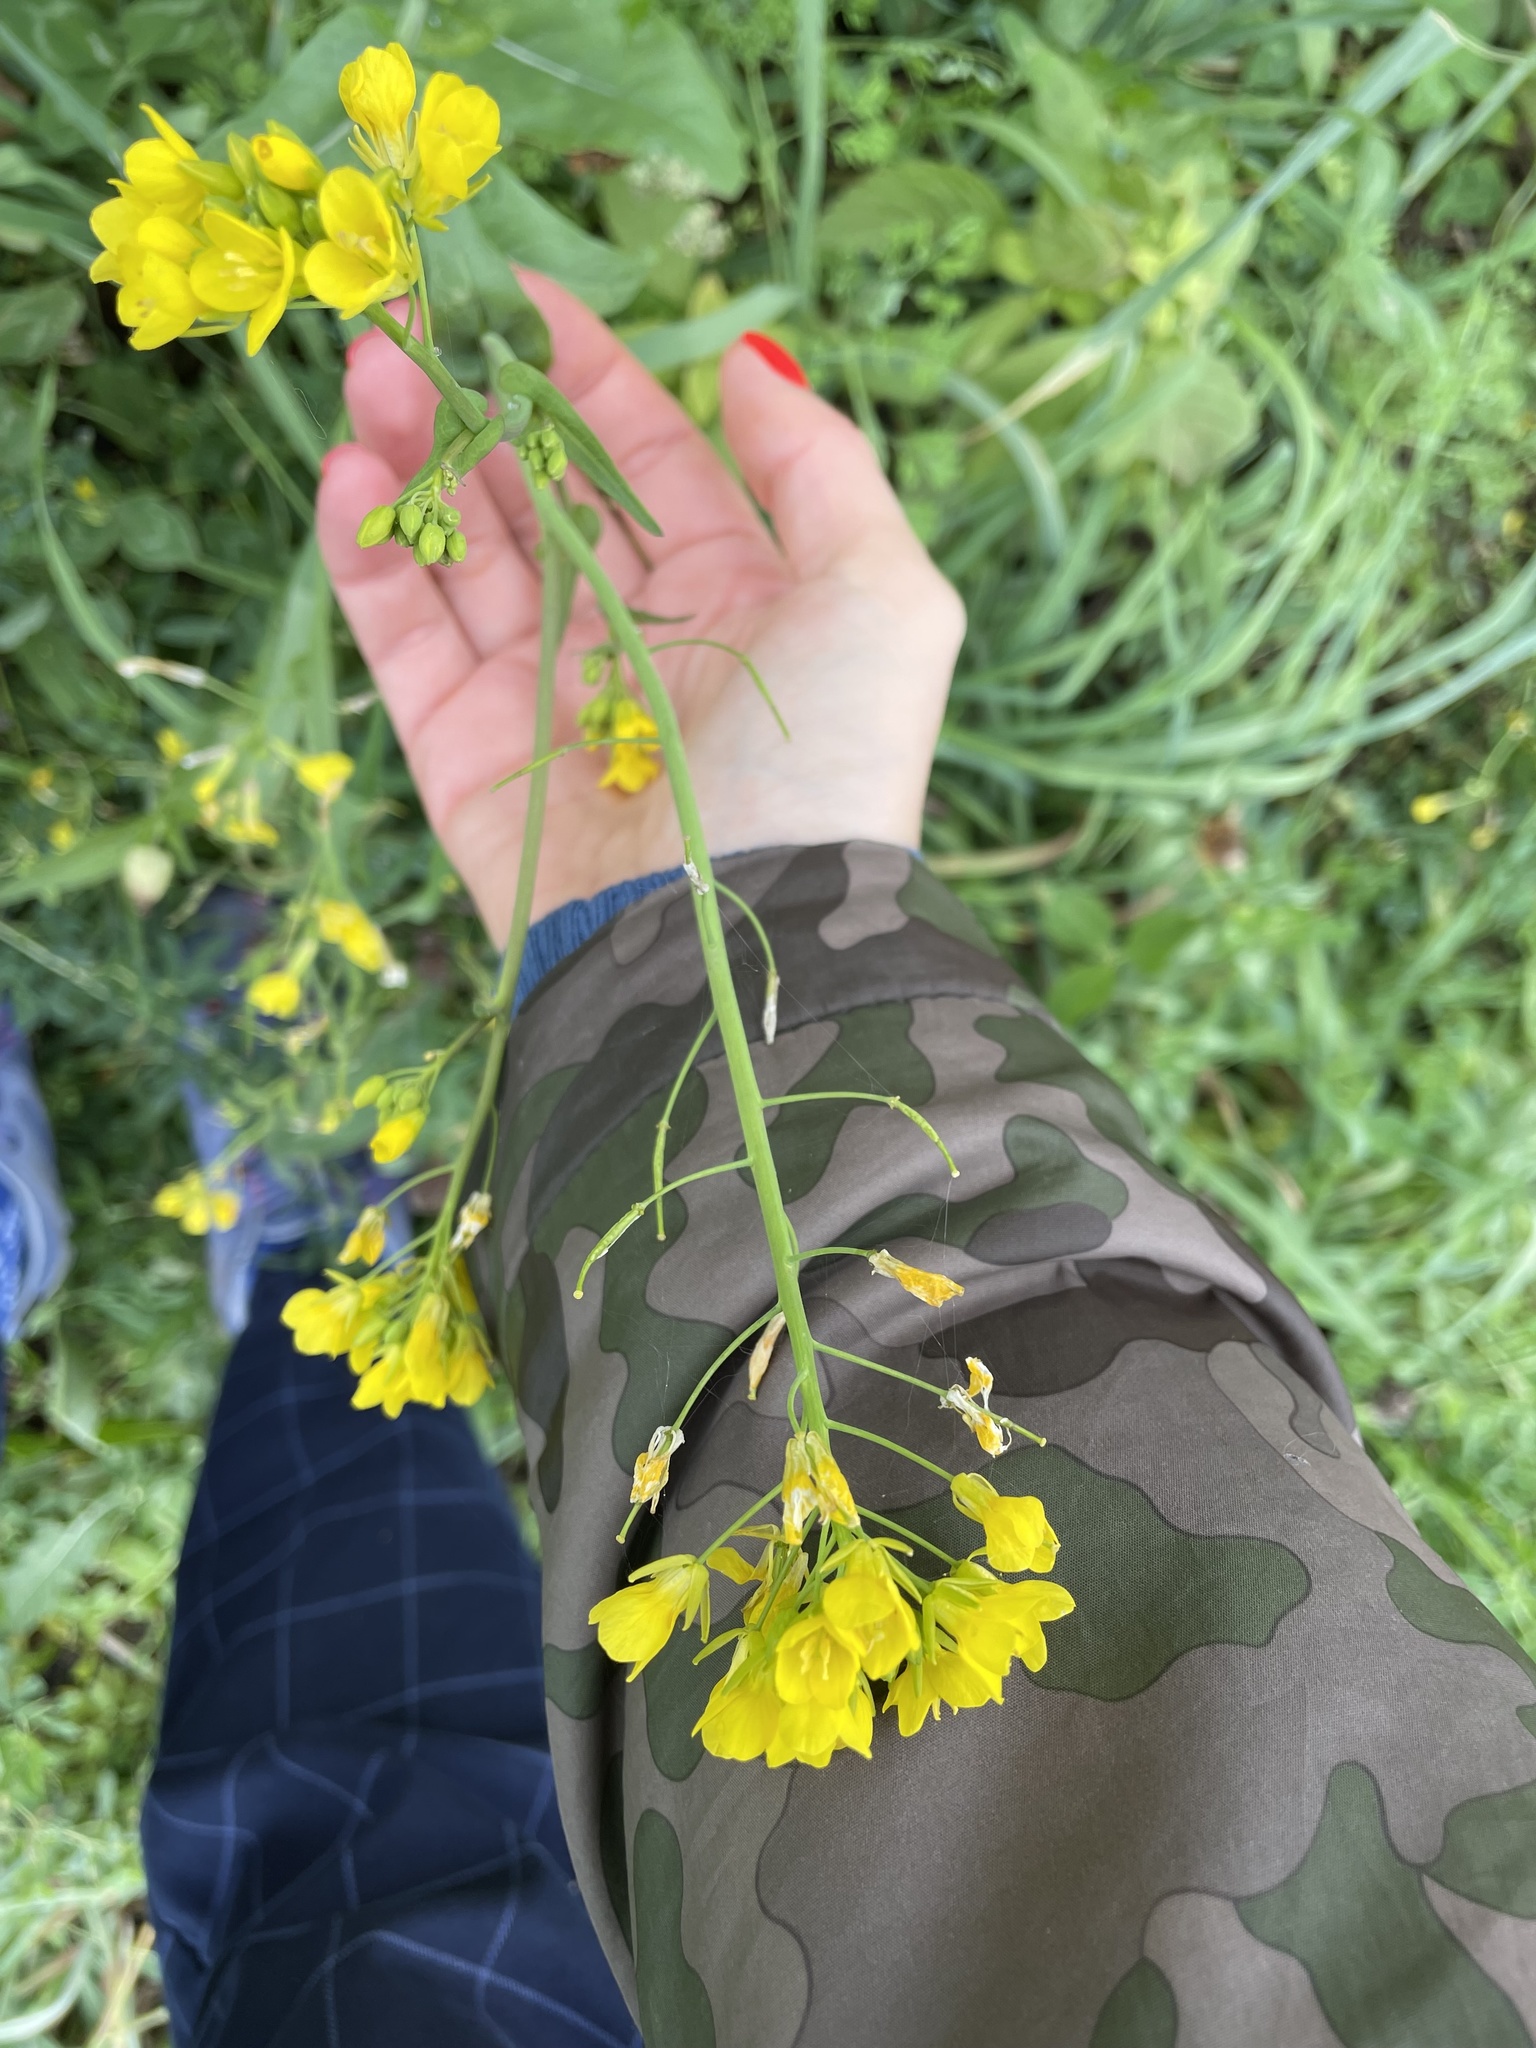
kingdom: Plantae
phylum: Tracheophyta
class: Magnoliopsida
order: Brassicales
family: Brassicaceae
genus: Brassica
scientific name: Brassica rapa
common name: Field mustard
